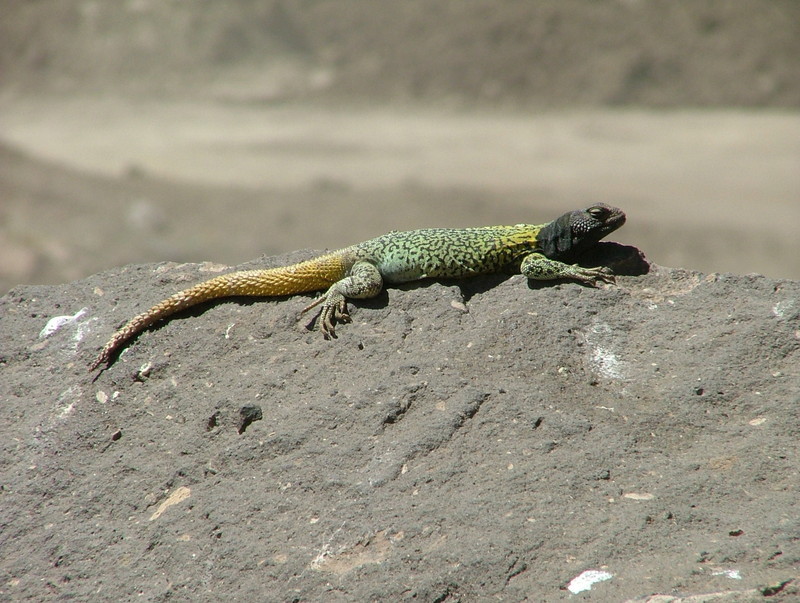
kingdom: Animalia
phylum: Chordata
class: Squamata
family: Liolaemidae
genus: Phymaturus
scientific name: Phymaturus verdugo
